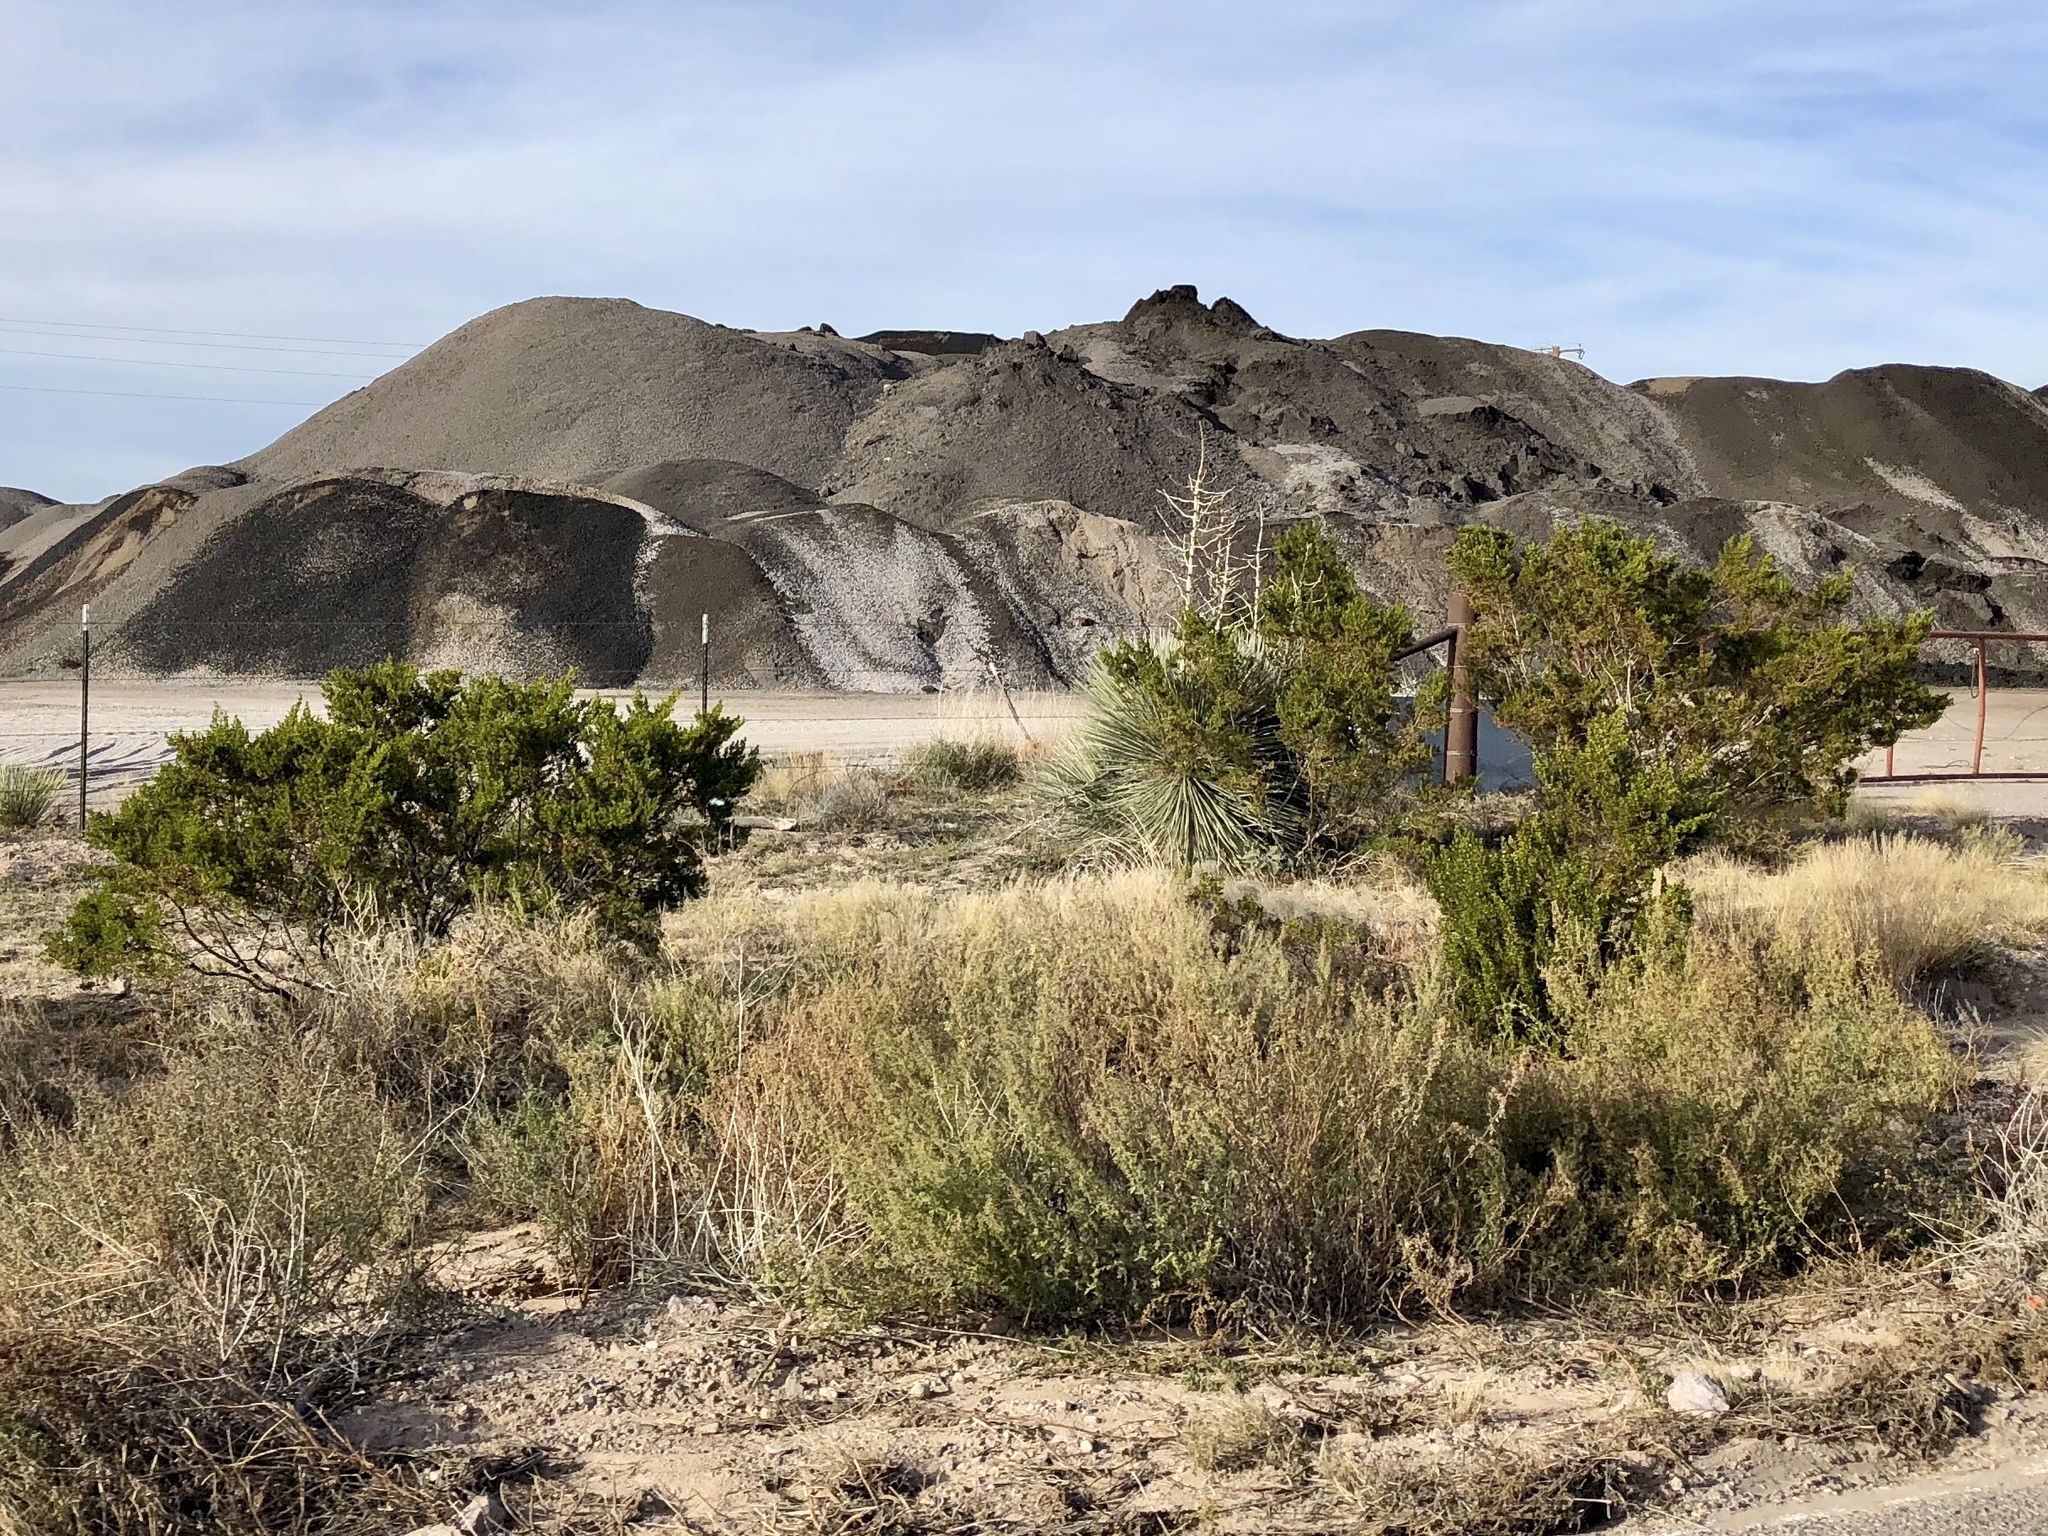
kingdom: Plantae
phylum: Tracheophyta
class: Magnoliopsida
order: Zygophyllales
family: Zygophyllaceae
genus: Larrea
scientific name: Larrea tridentata
